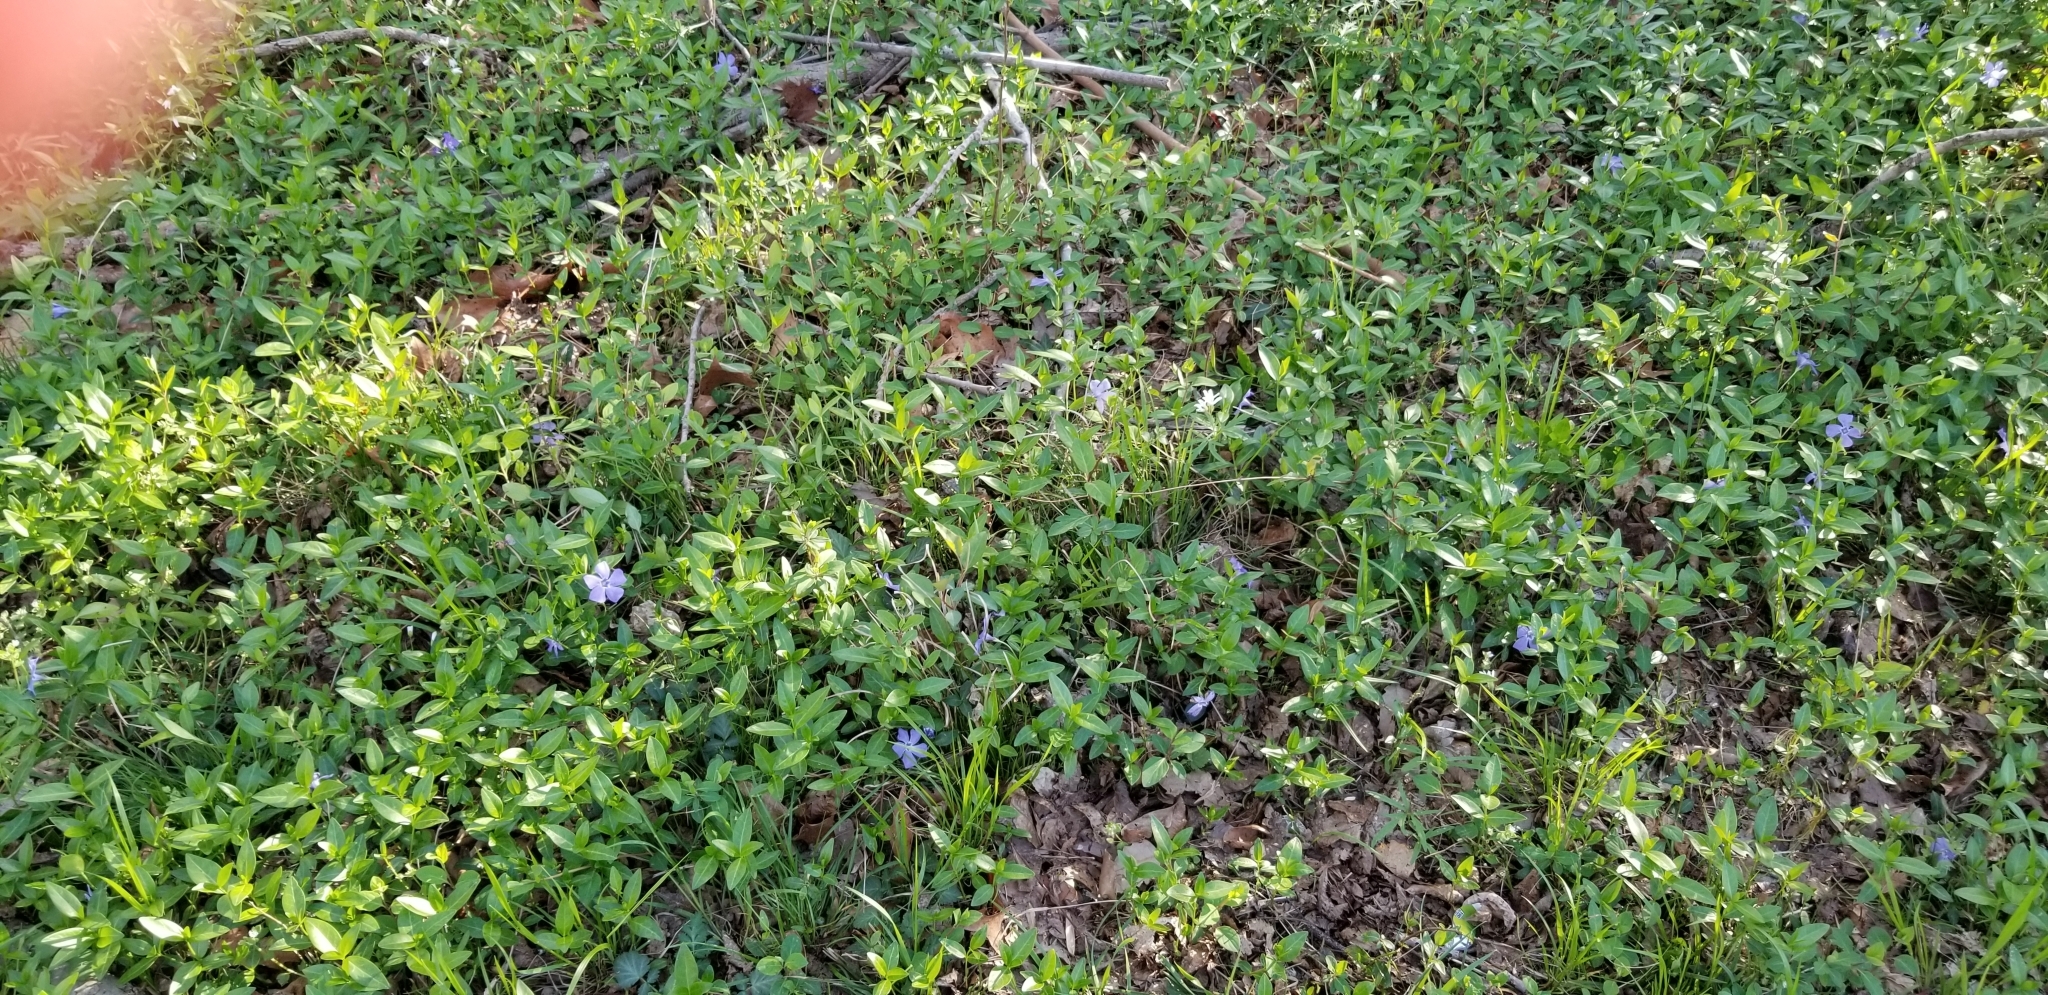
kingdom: Plantae
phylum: Tracheophyta
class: Magnoliopsida
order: Gentianales
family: Apocynaceae
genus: Vinca
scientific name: Vinca minor
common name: Lesser periwinkle
